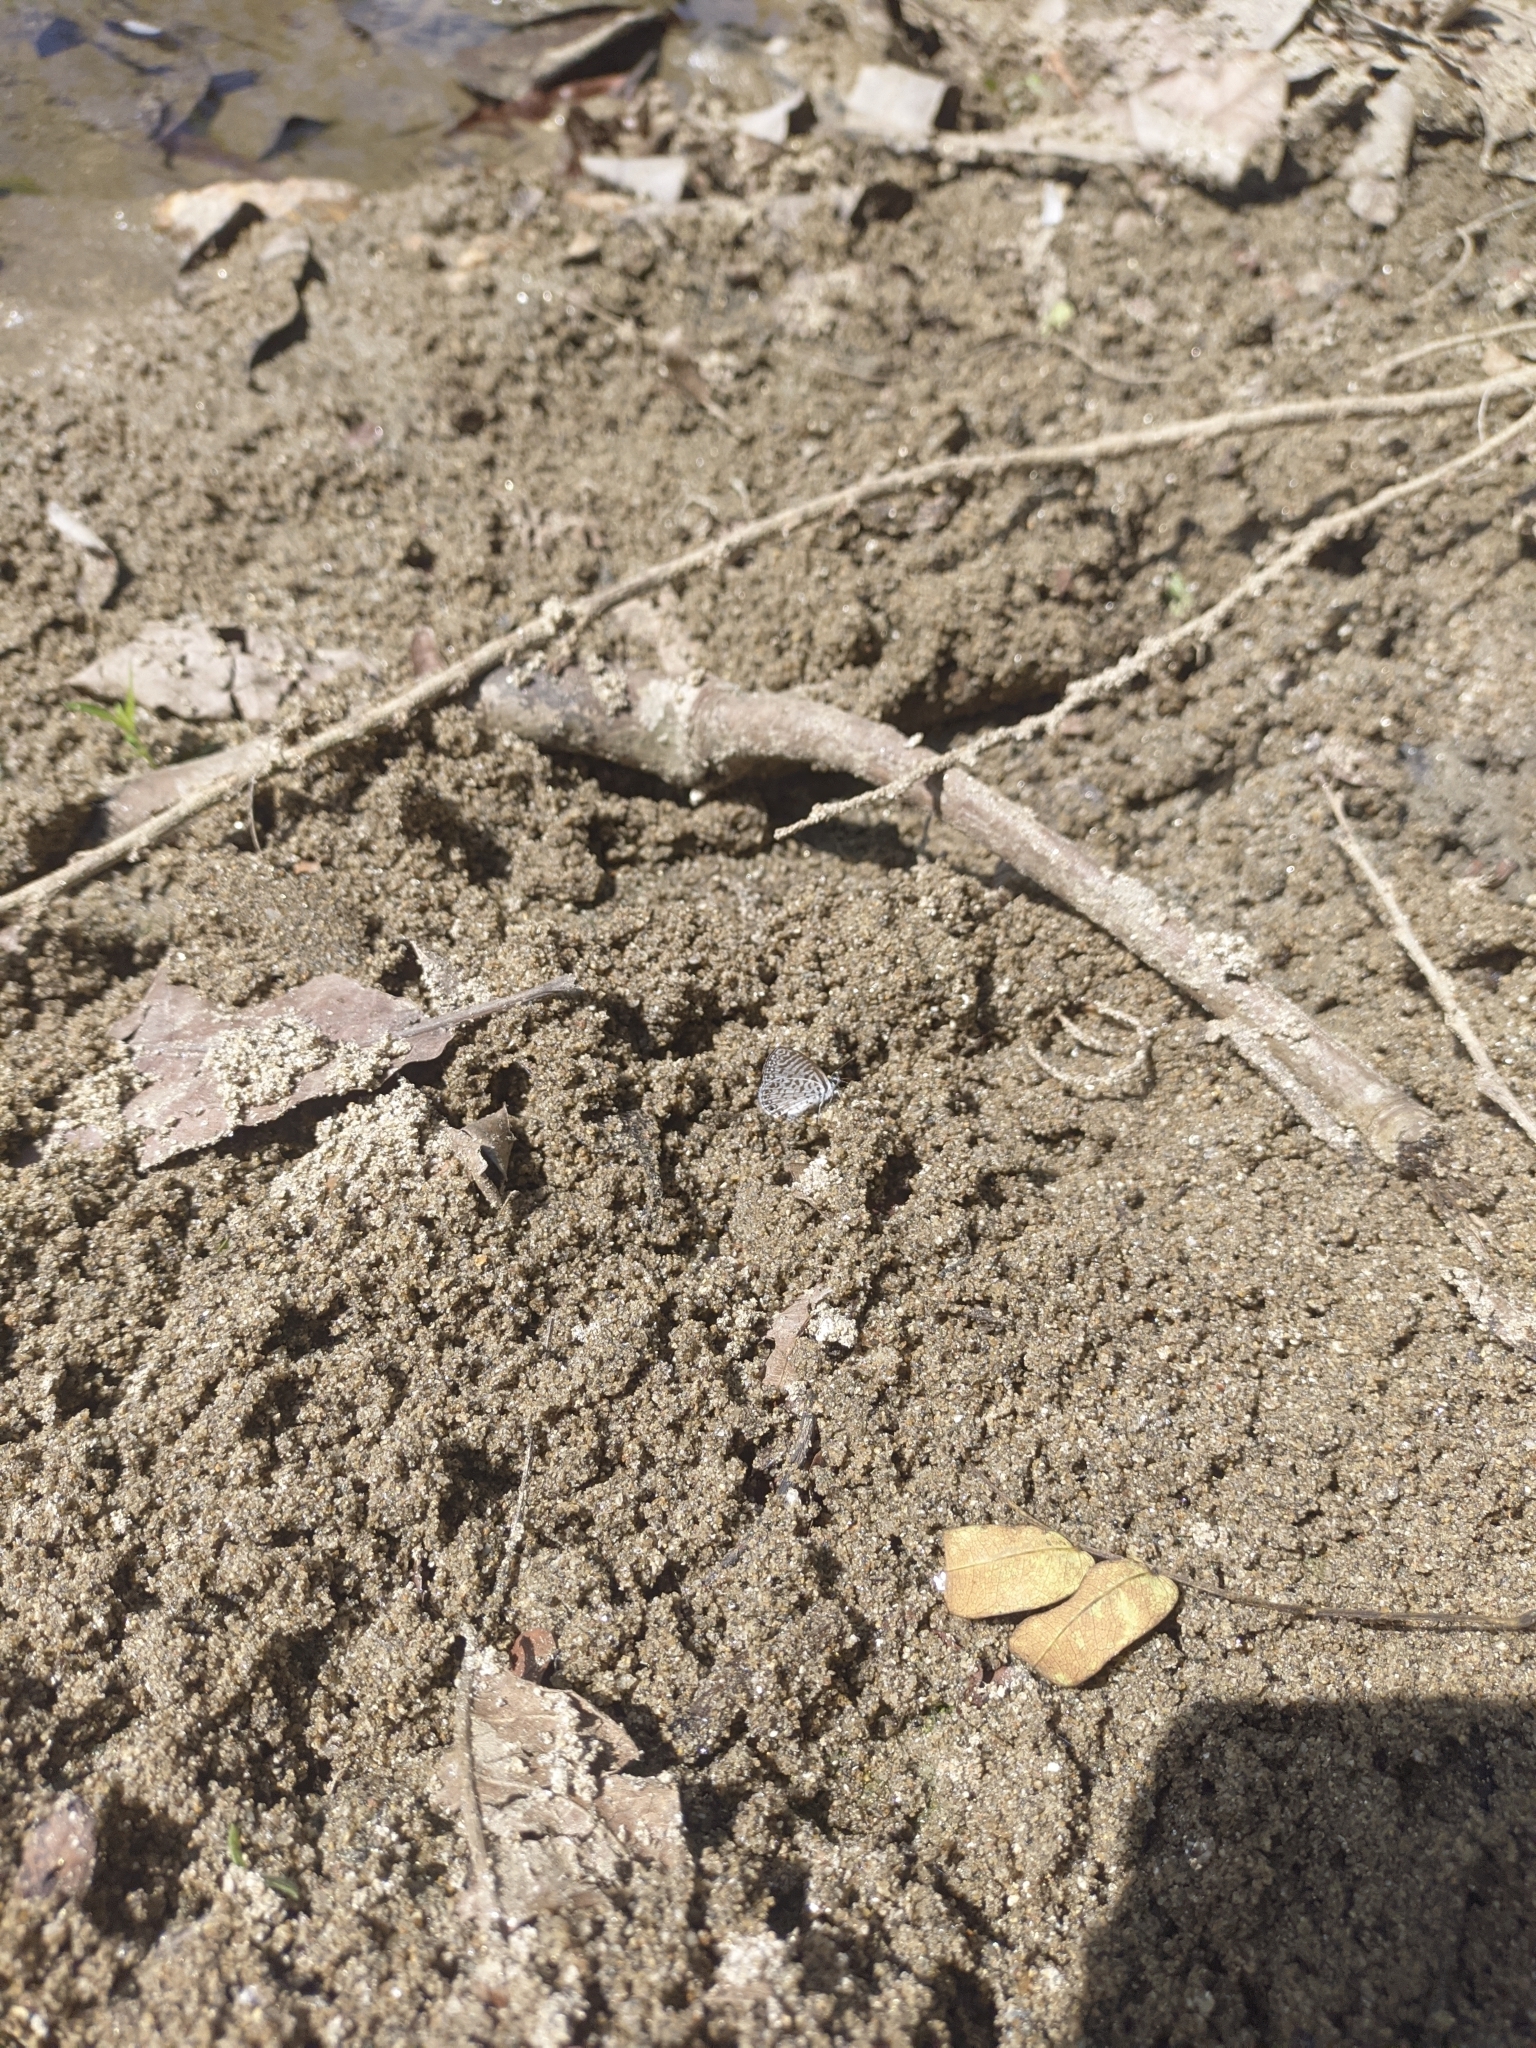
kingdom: Animalia
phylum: Arthropoda
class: Insecta
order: Lepidoptera
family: Lycaenidae
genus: Leptotes
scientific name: Leptotes cassius
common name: Cassius blue
